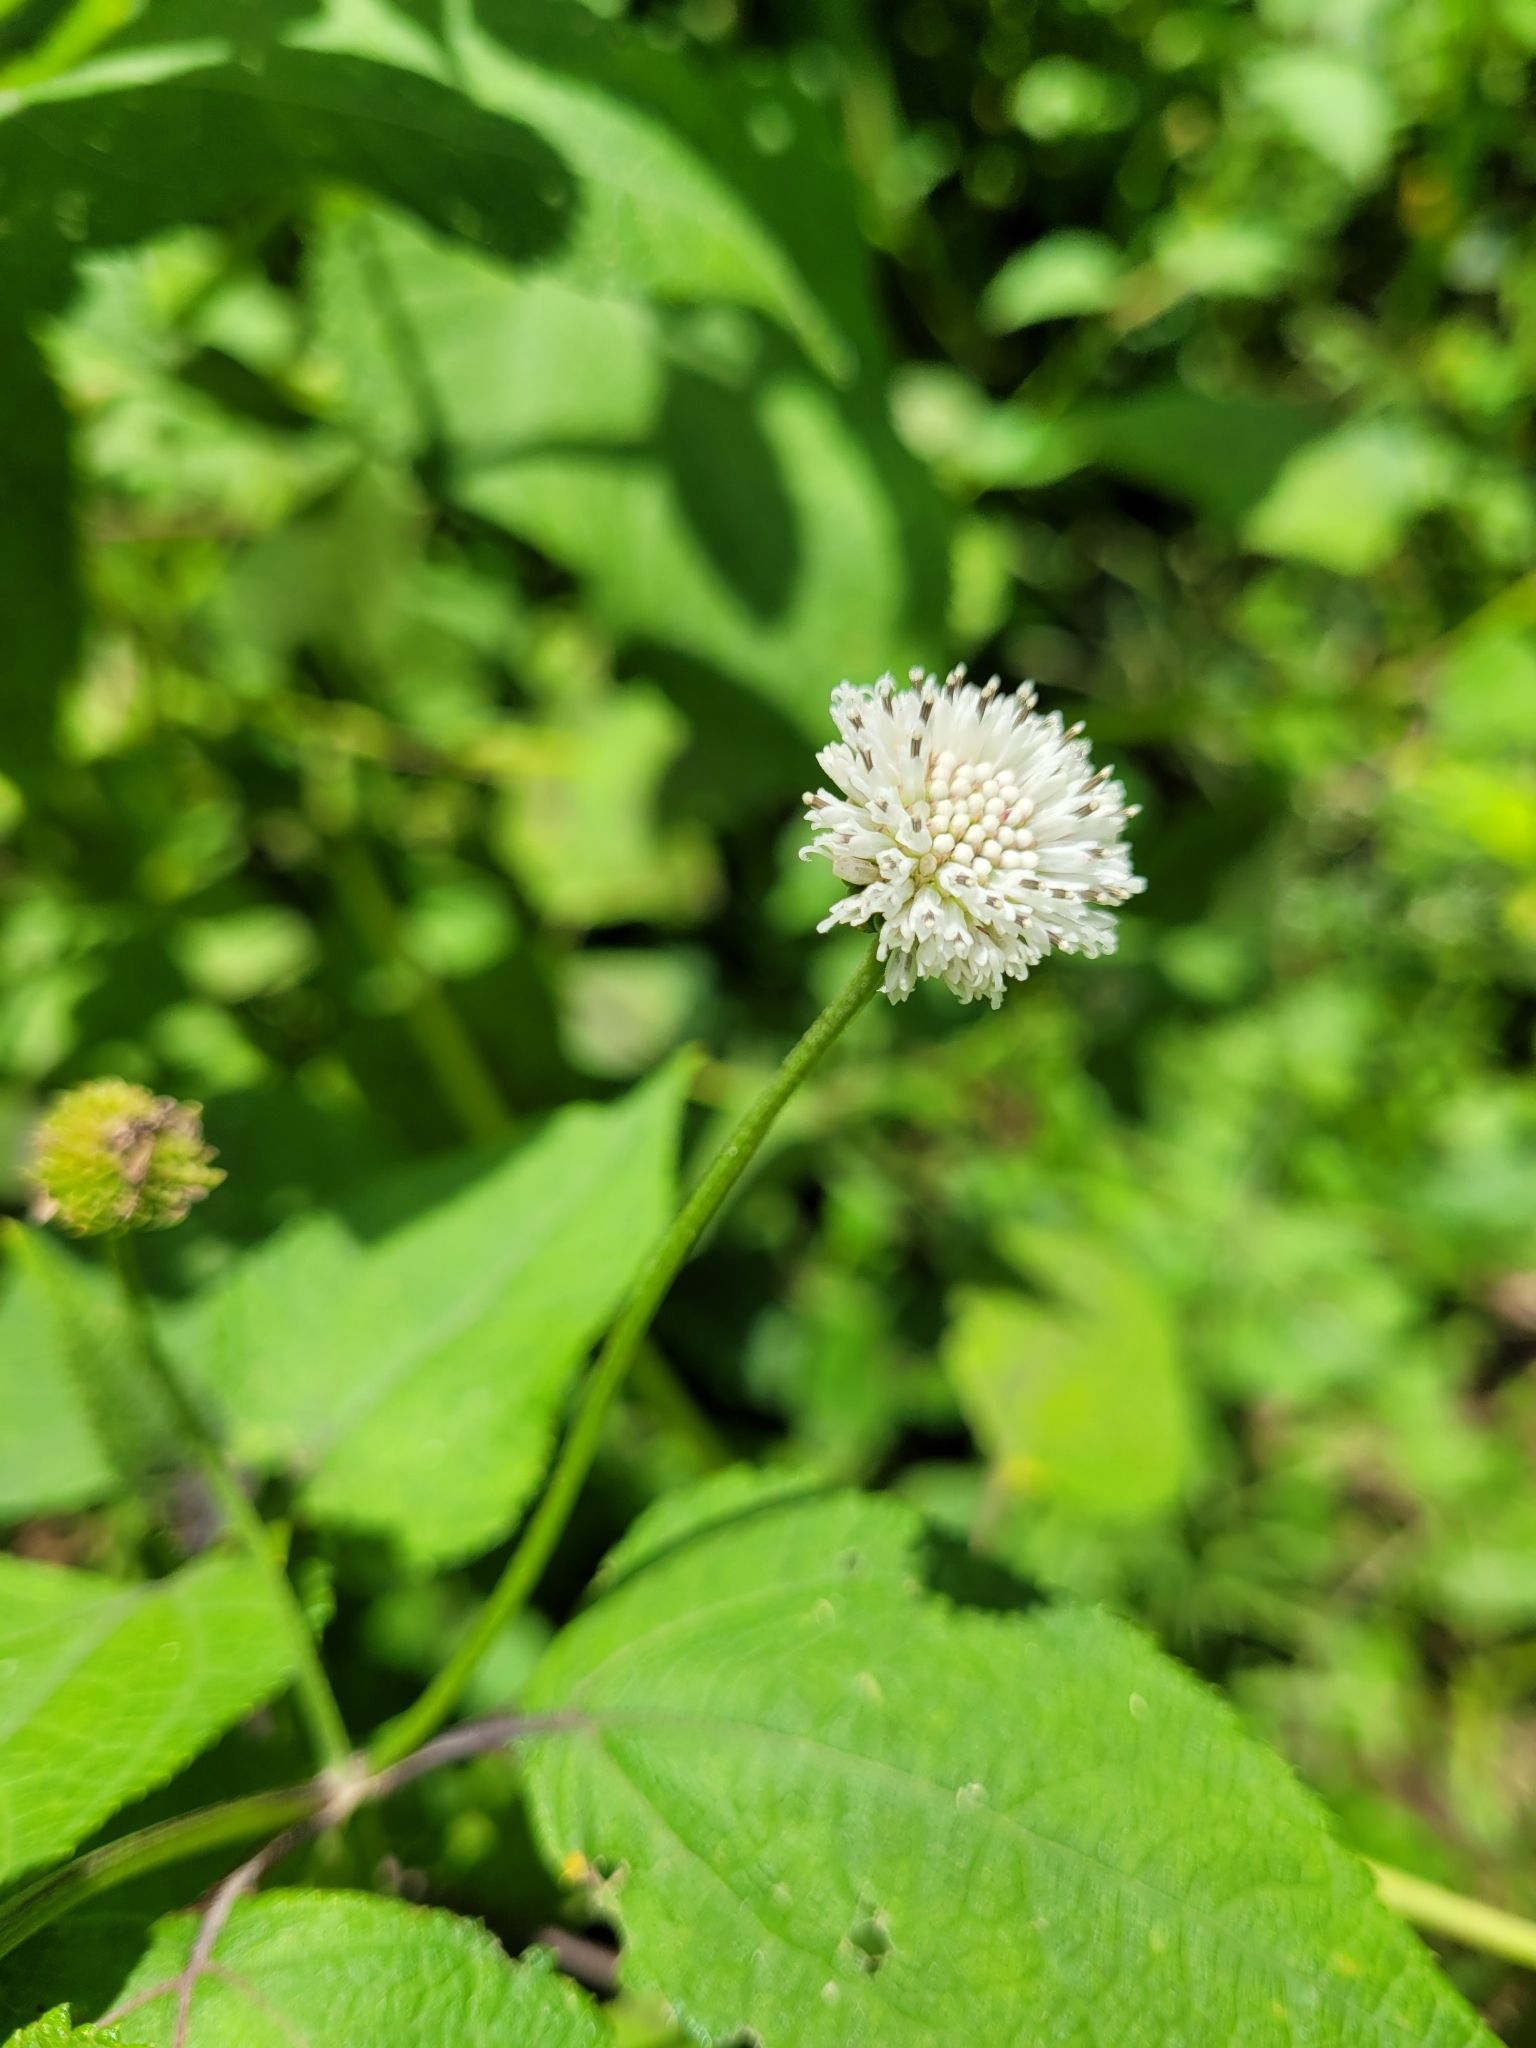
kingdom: Plantae
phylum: Tracheophyta
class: Magnoliopsida
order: Asterales
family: Asteraceae
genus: Melanthera
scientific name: Melanthera nivea
